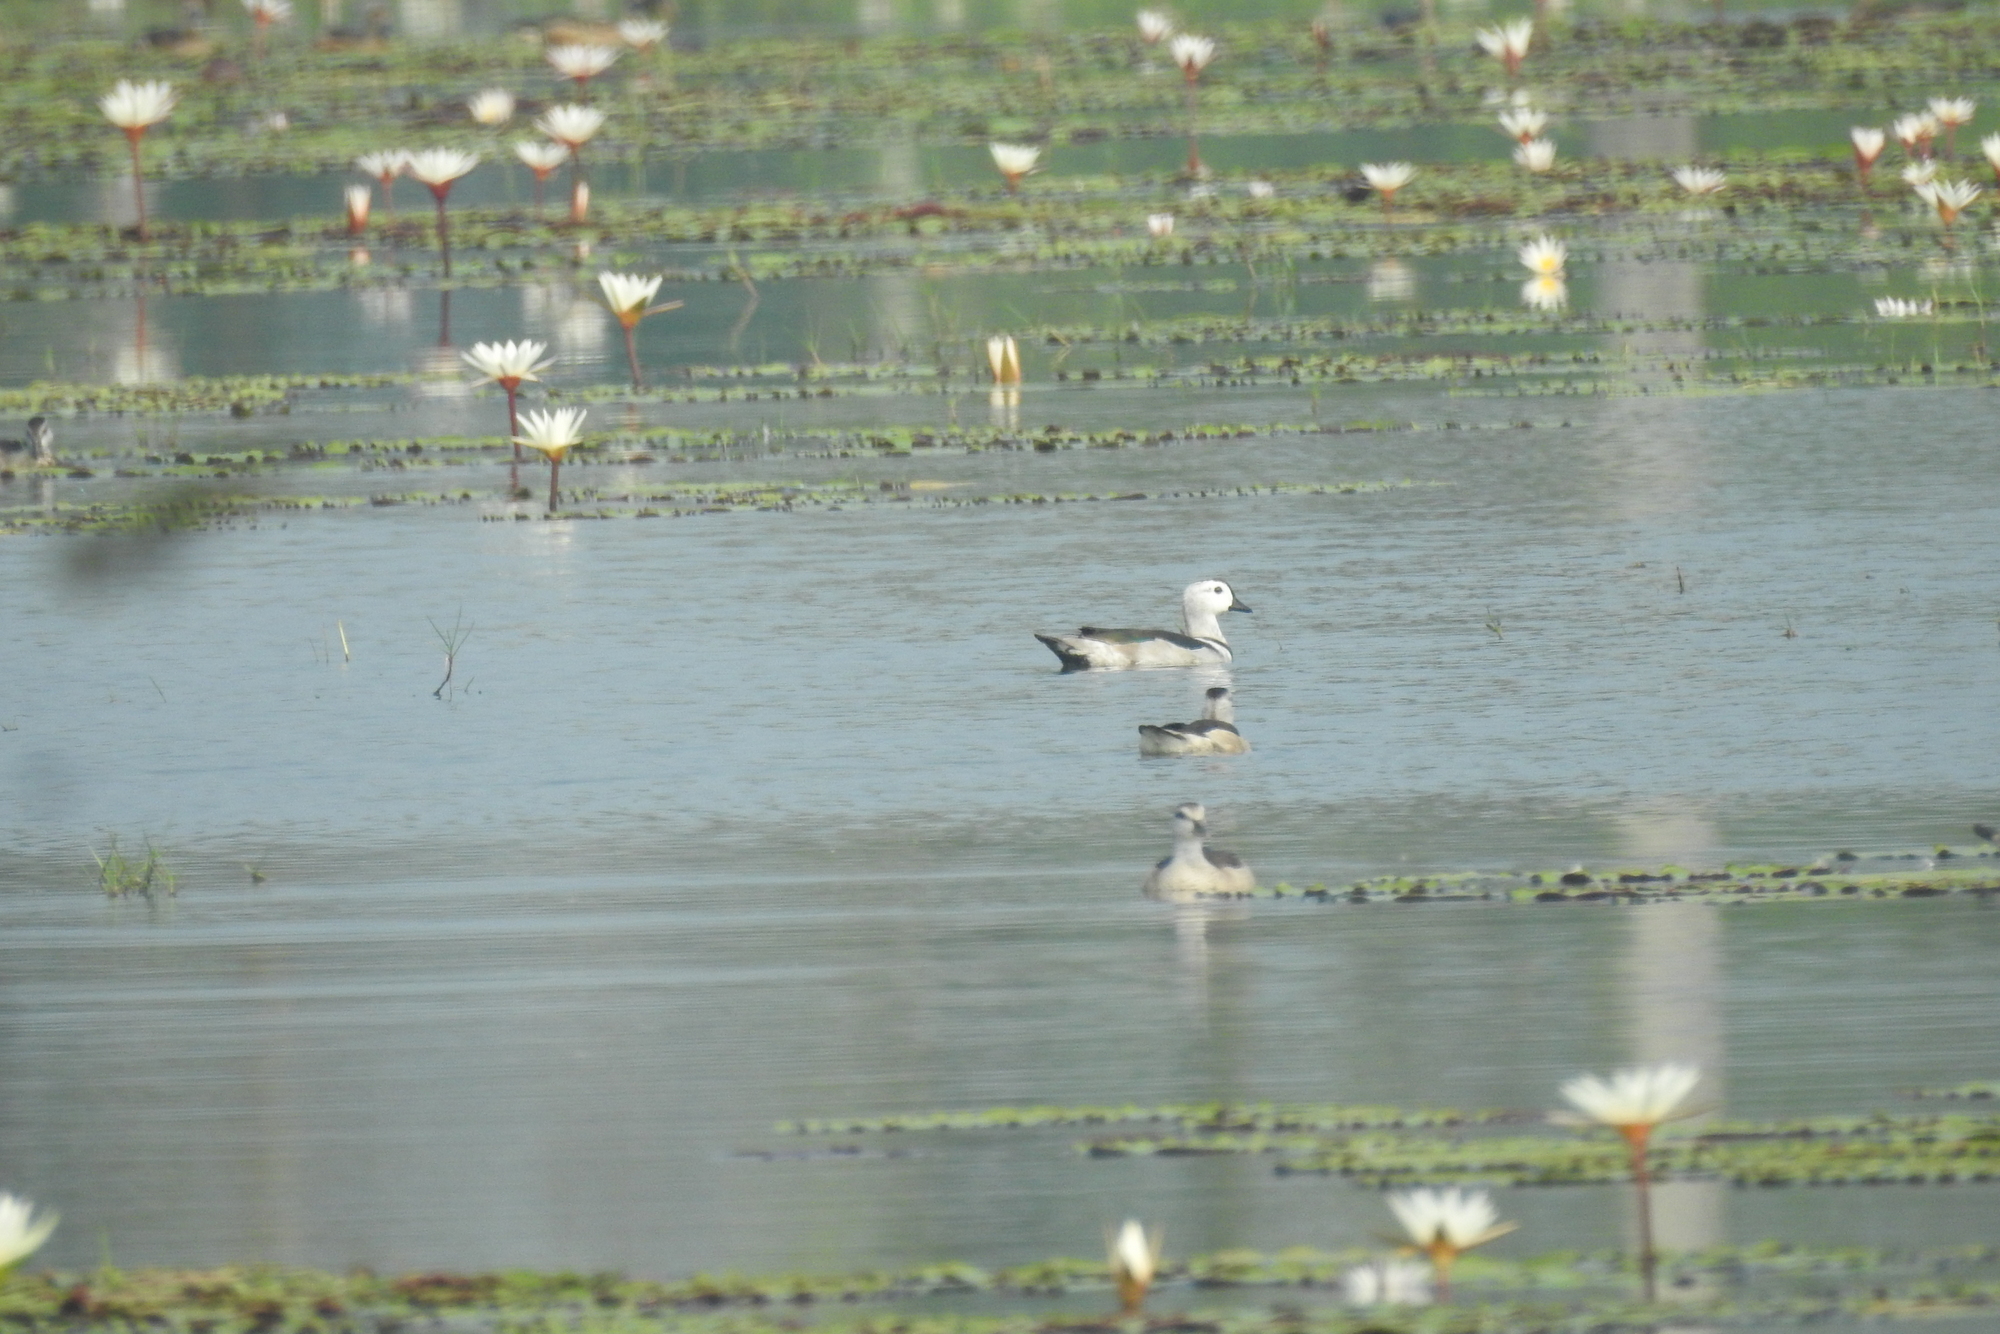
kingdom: Animalia
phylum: Chordata
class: Aves
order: Anseriformes
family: Anatidae
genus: Nettapus
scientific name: Nettapus coromandelianus
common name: Cotton pygmy-goose
